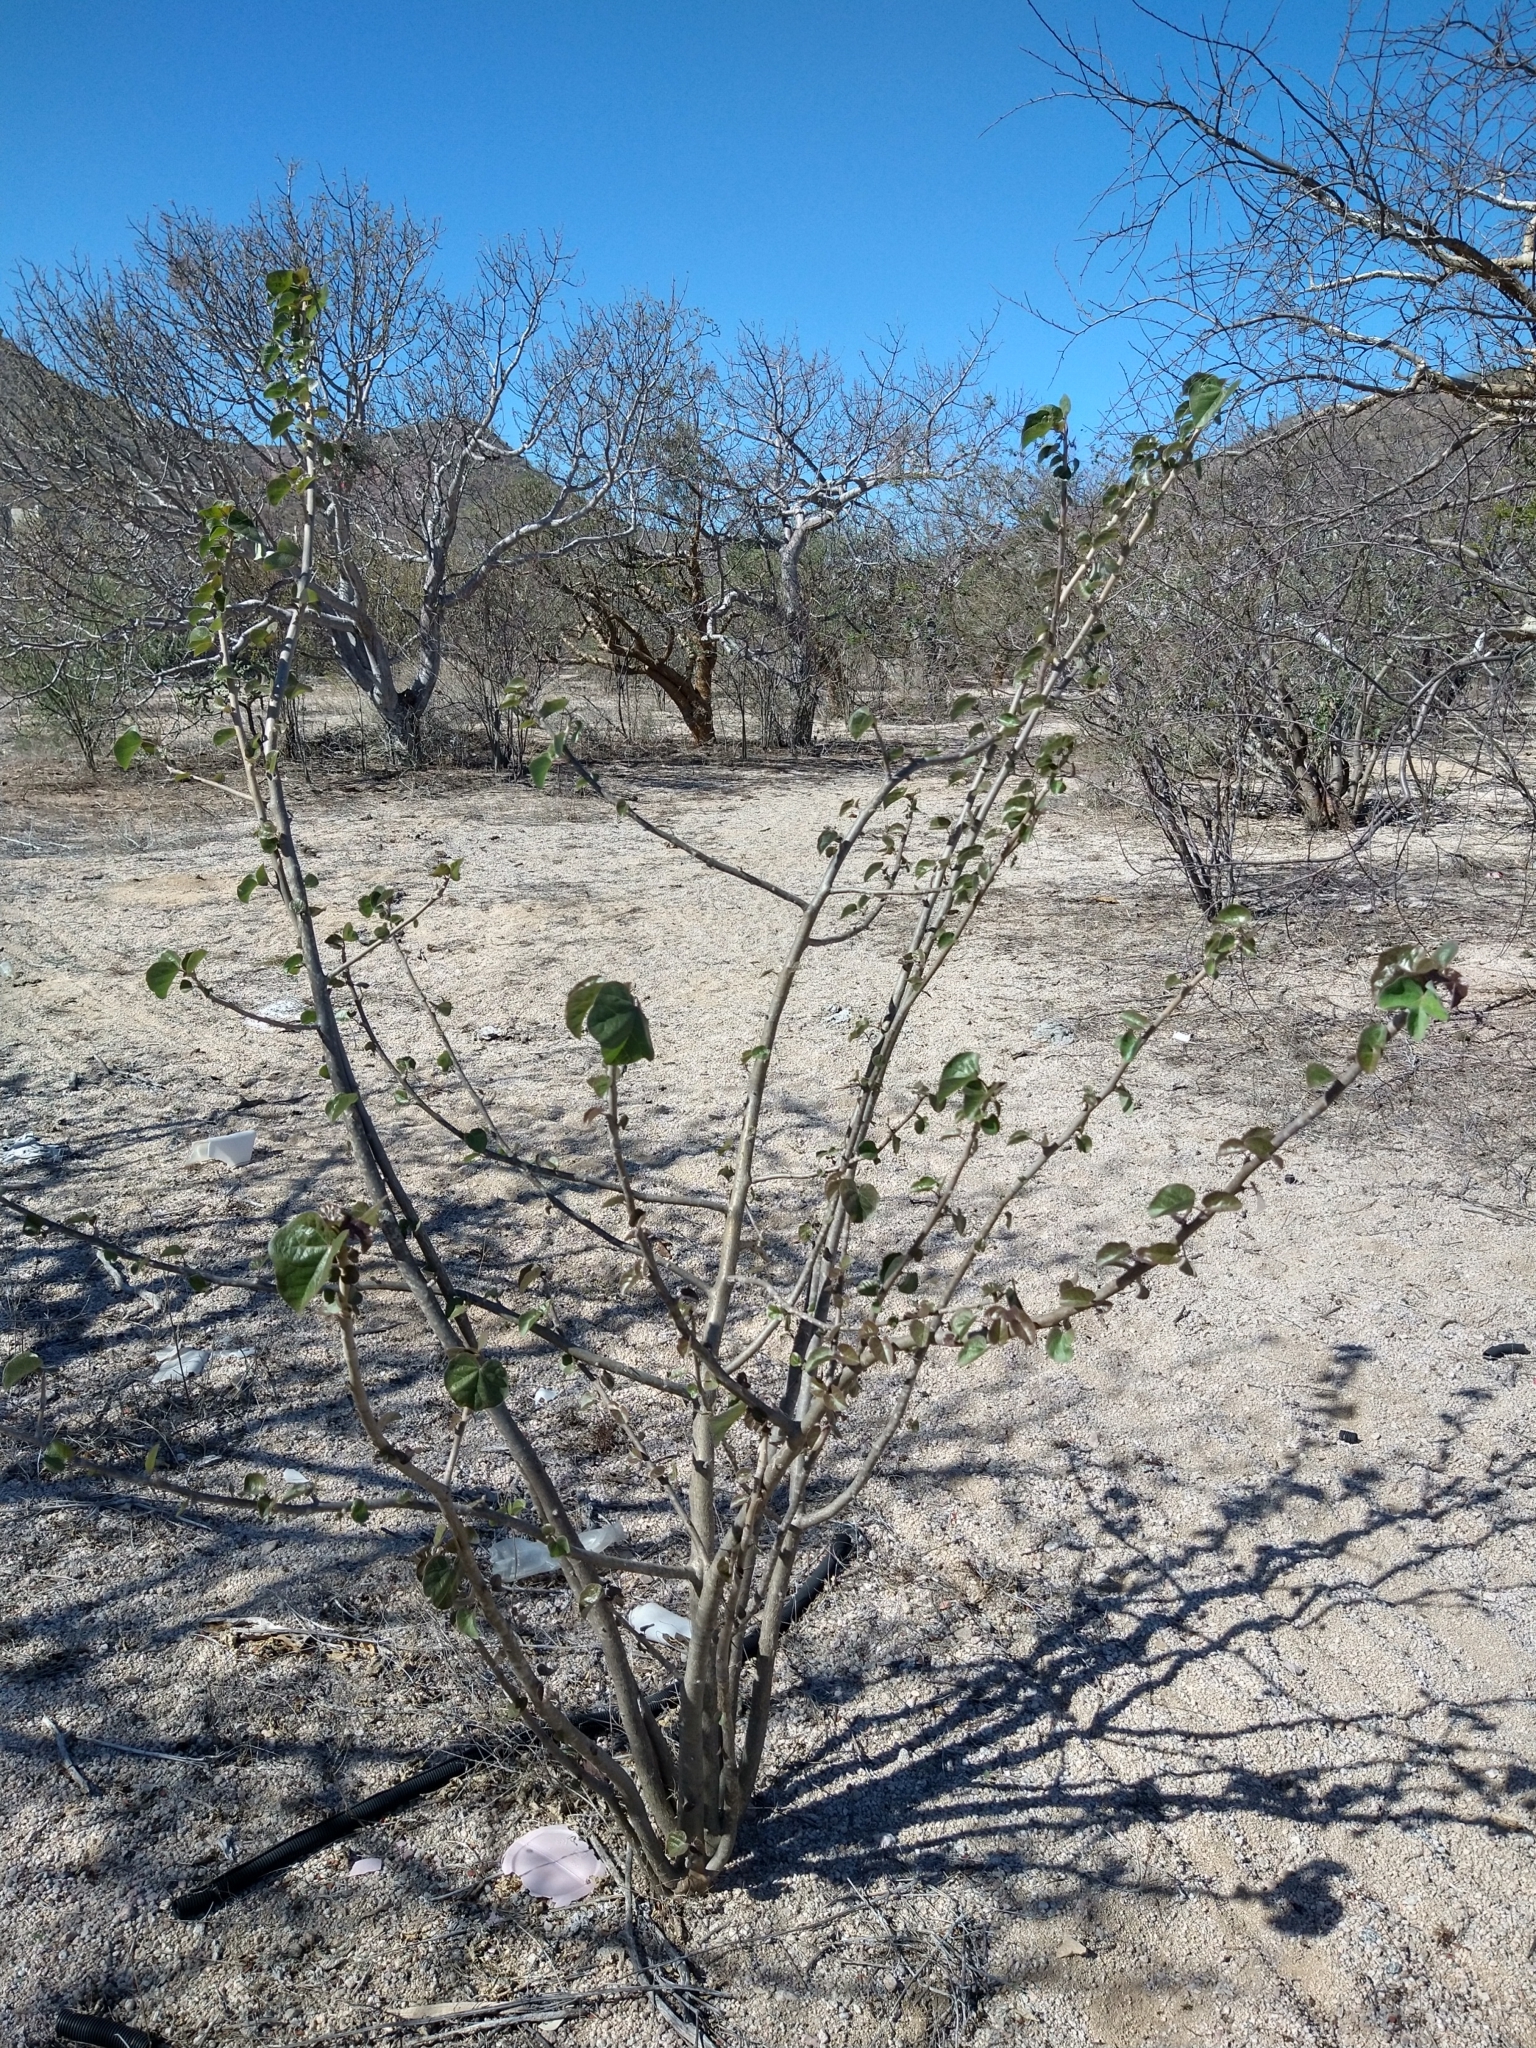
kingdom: Plantae
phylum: Tracheophyta
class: Magnoliopsida
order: Malpighiales
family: Euphorbiaceae
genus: Jatropha
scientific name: Jatropha cinerea
